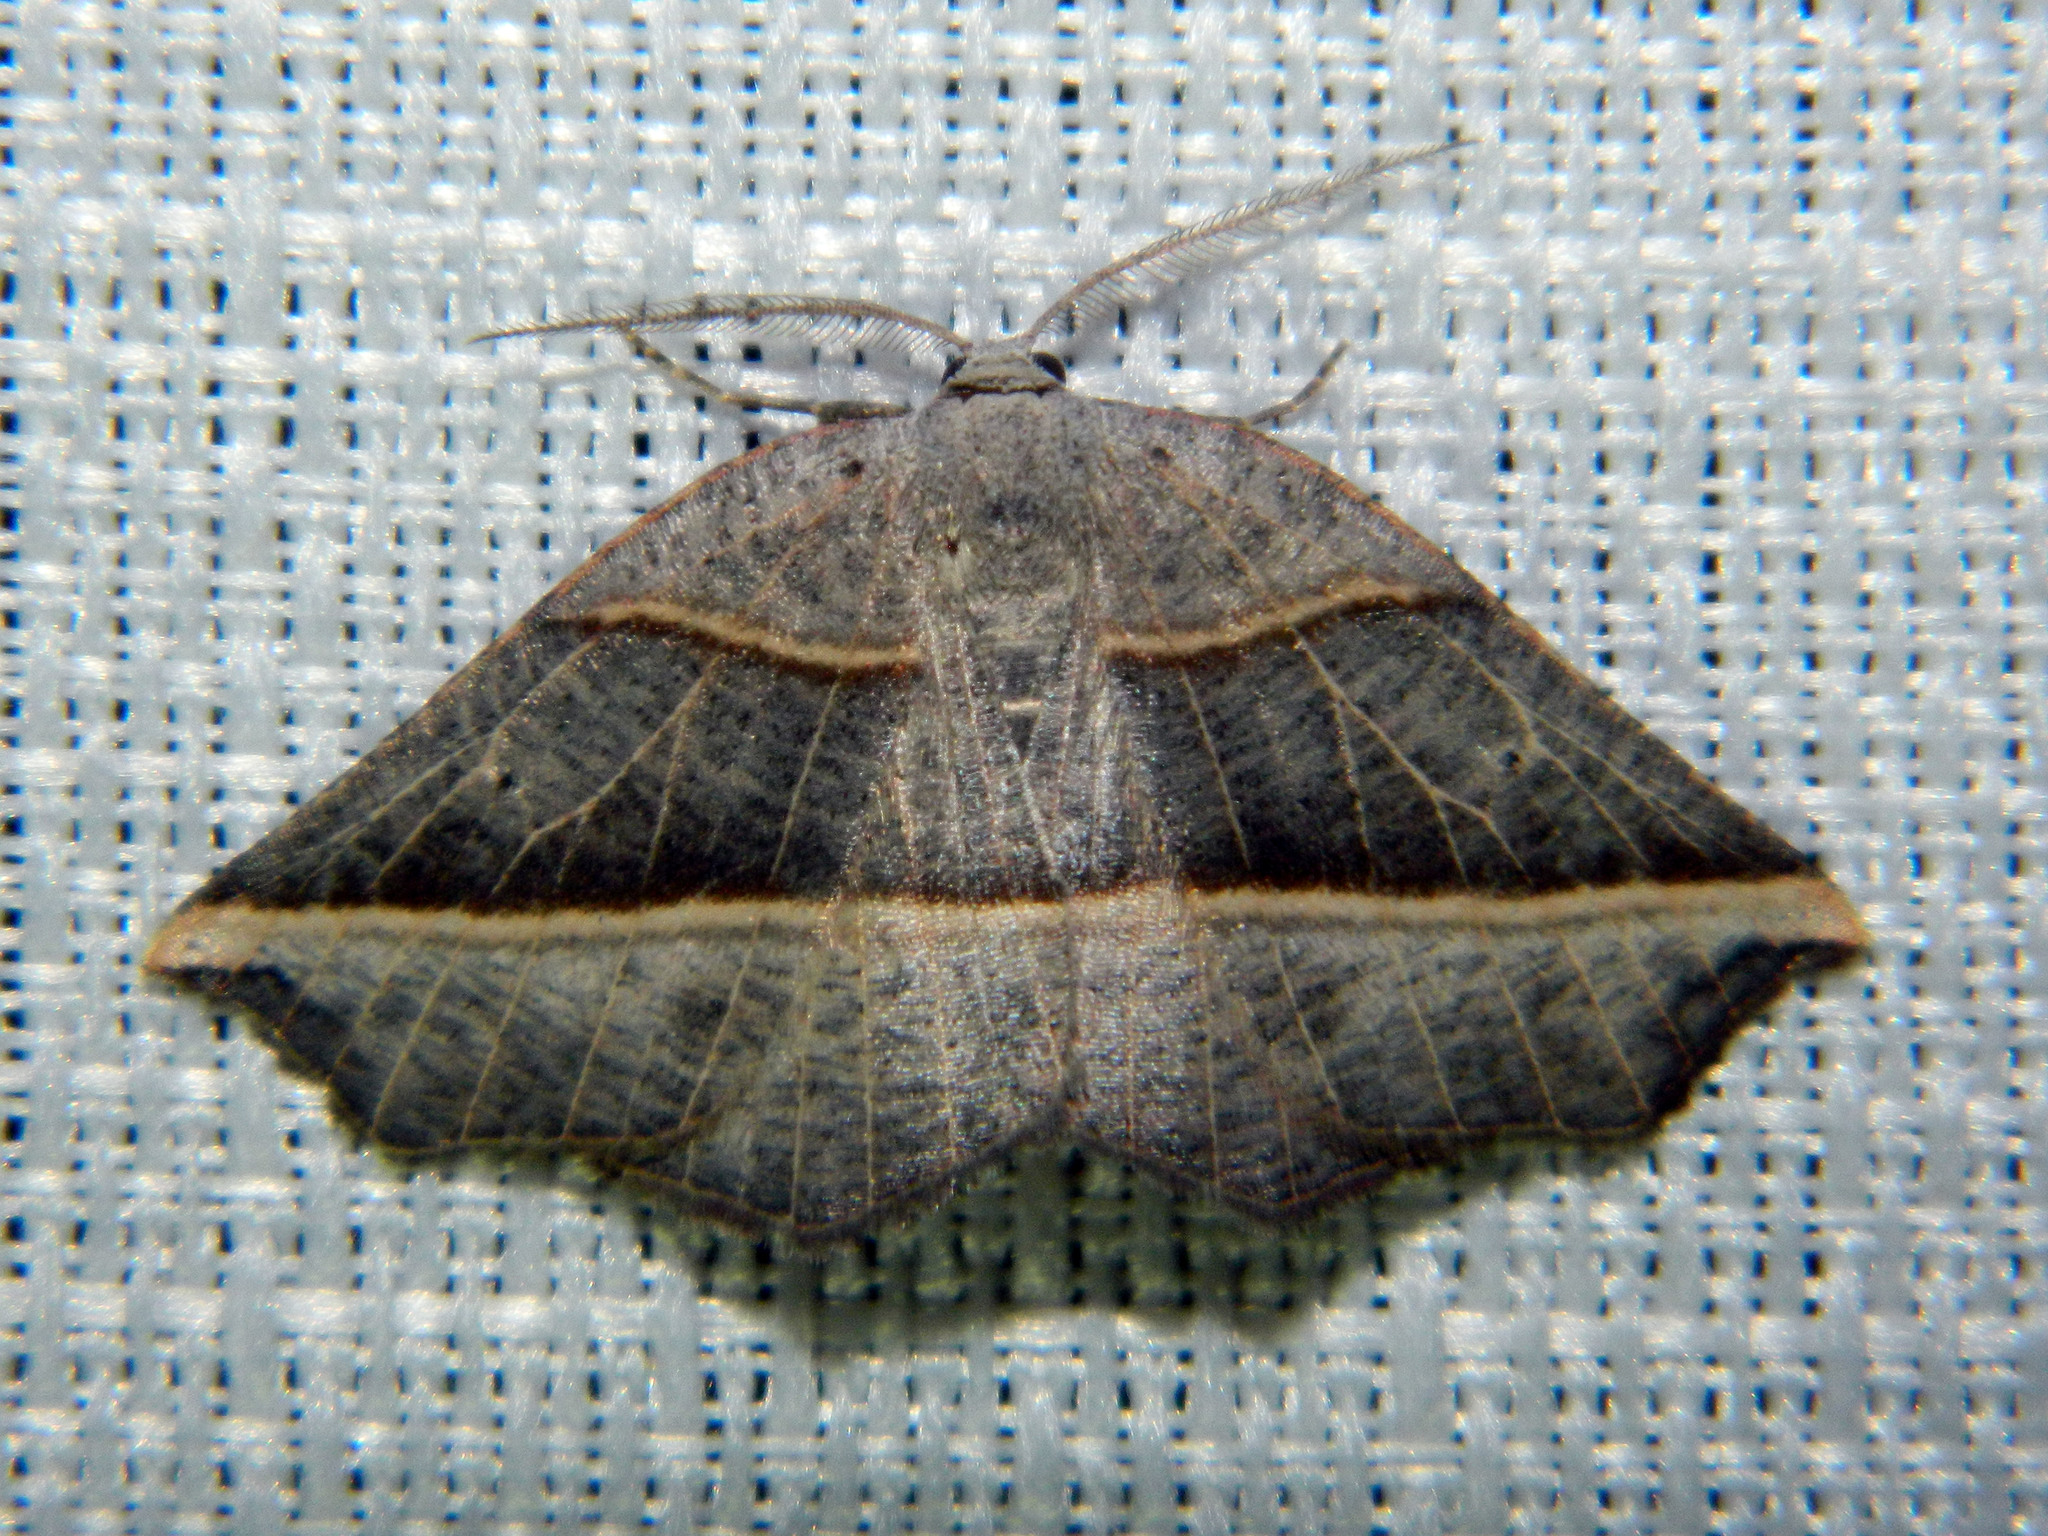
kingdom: Animalia
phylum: Arthropoda
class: Insecta
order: Lepidoptera
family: Geometridae
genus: Metanema
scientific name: Metanema determinata
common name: Dark metanema
